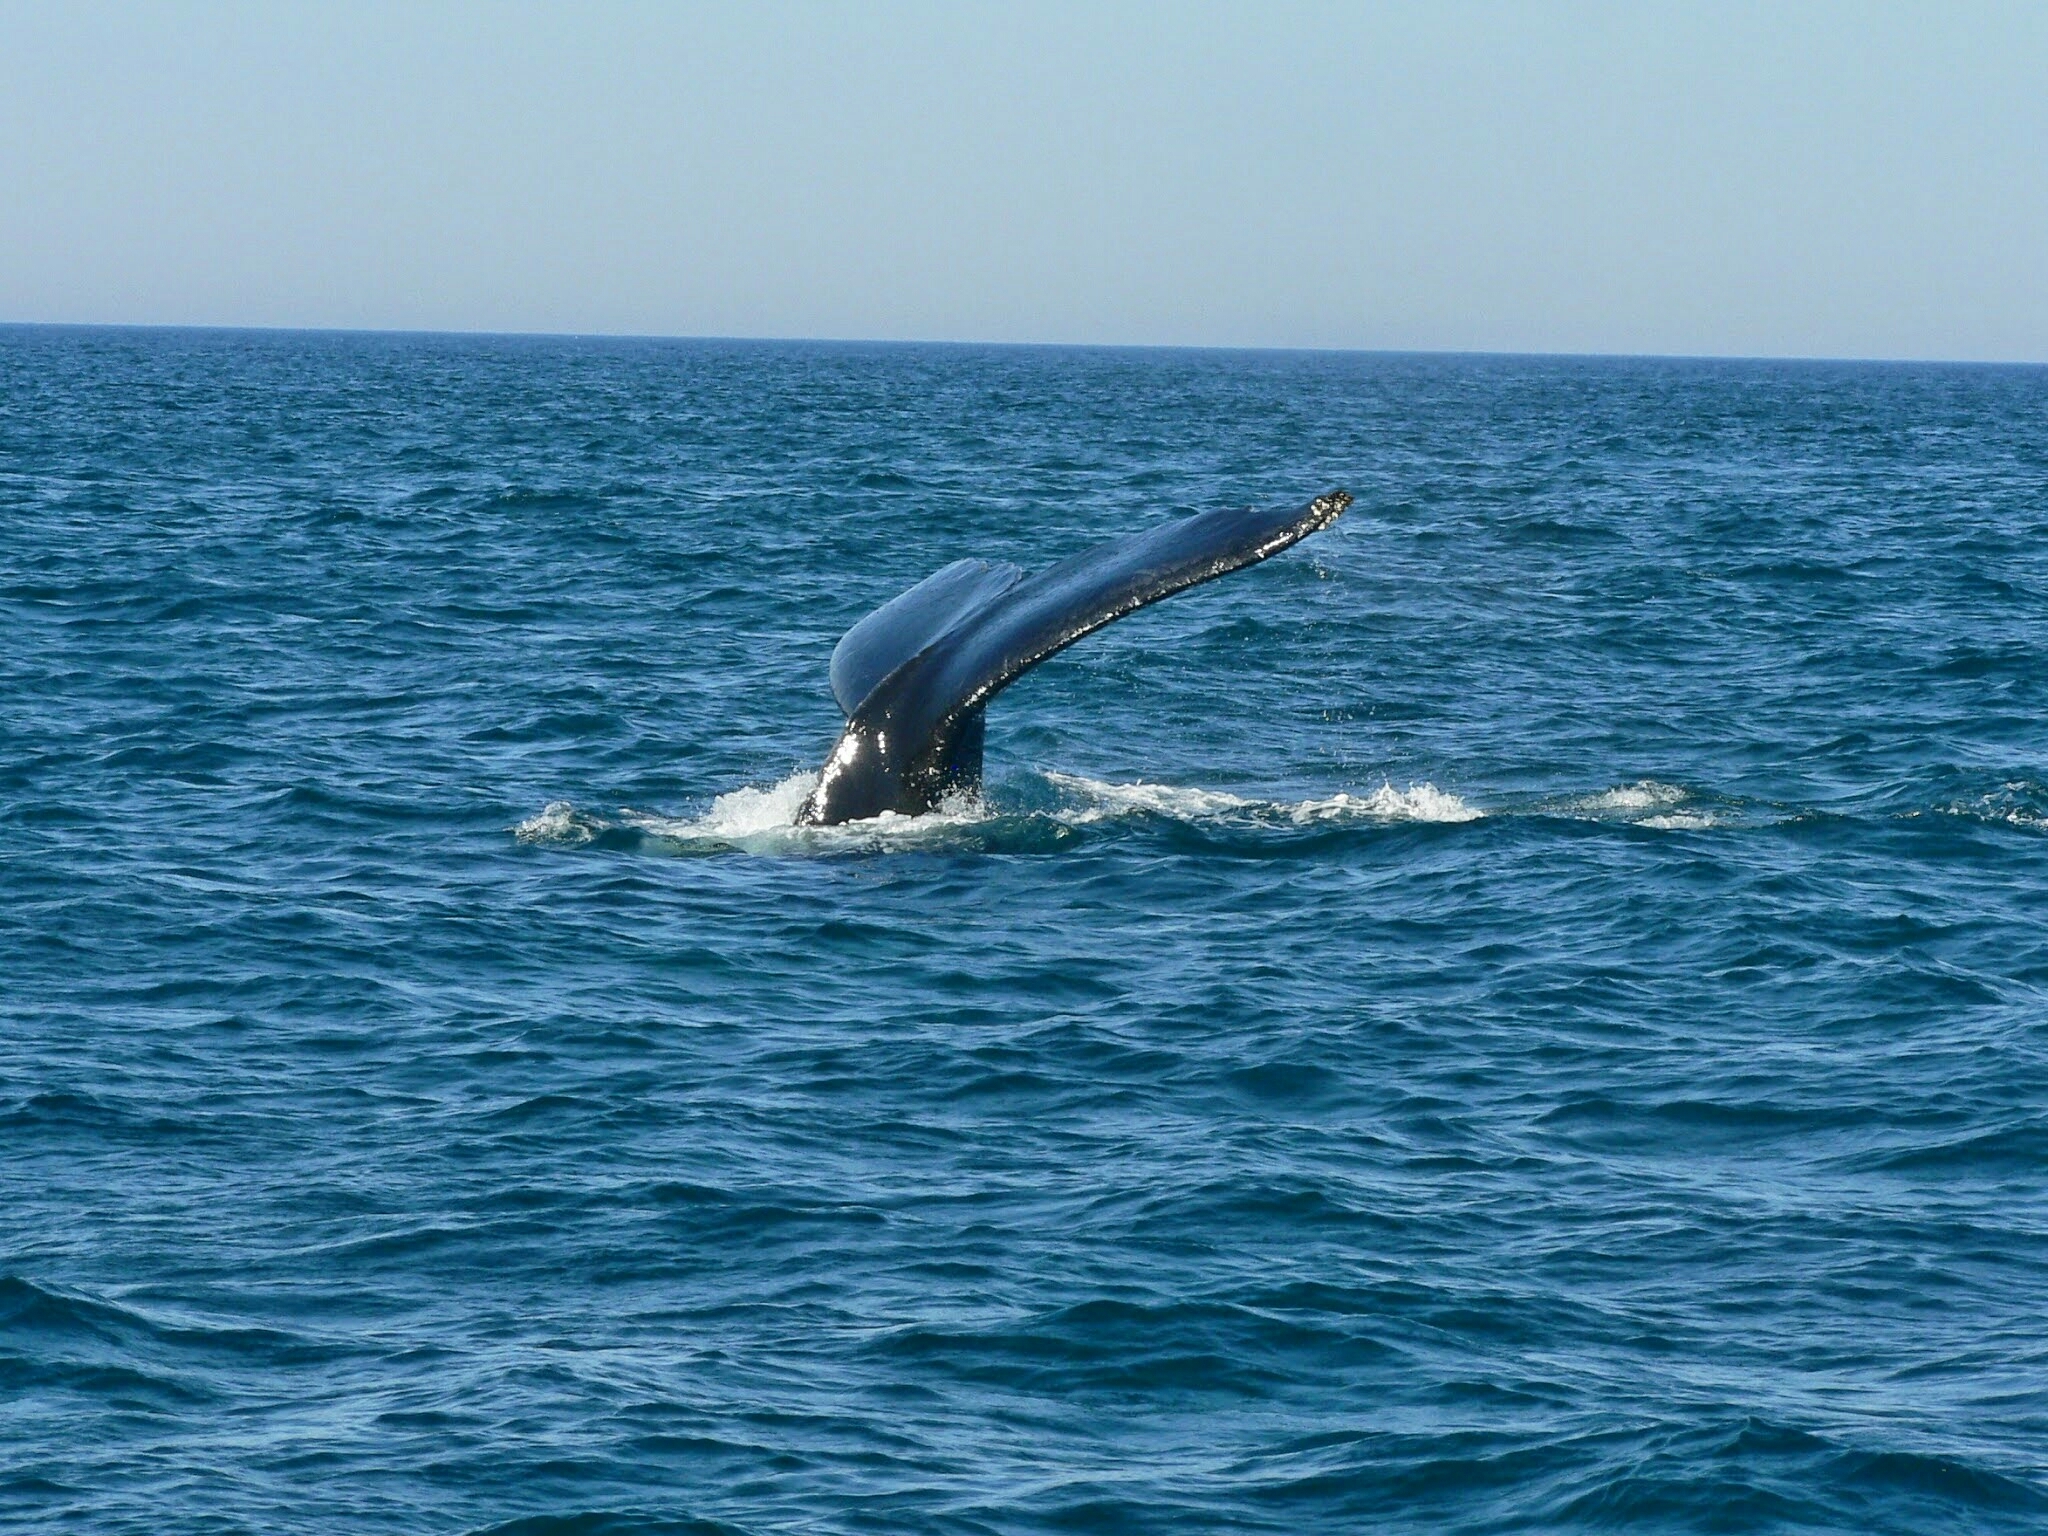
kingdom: Animalia
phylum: Chordata
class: Mammalia
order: Cetacea
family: Balaenopteridae
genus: Megaptera
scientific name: Megaptera novaeangliae
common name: Humpback whale
